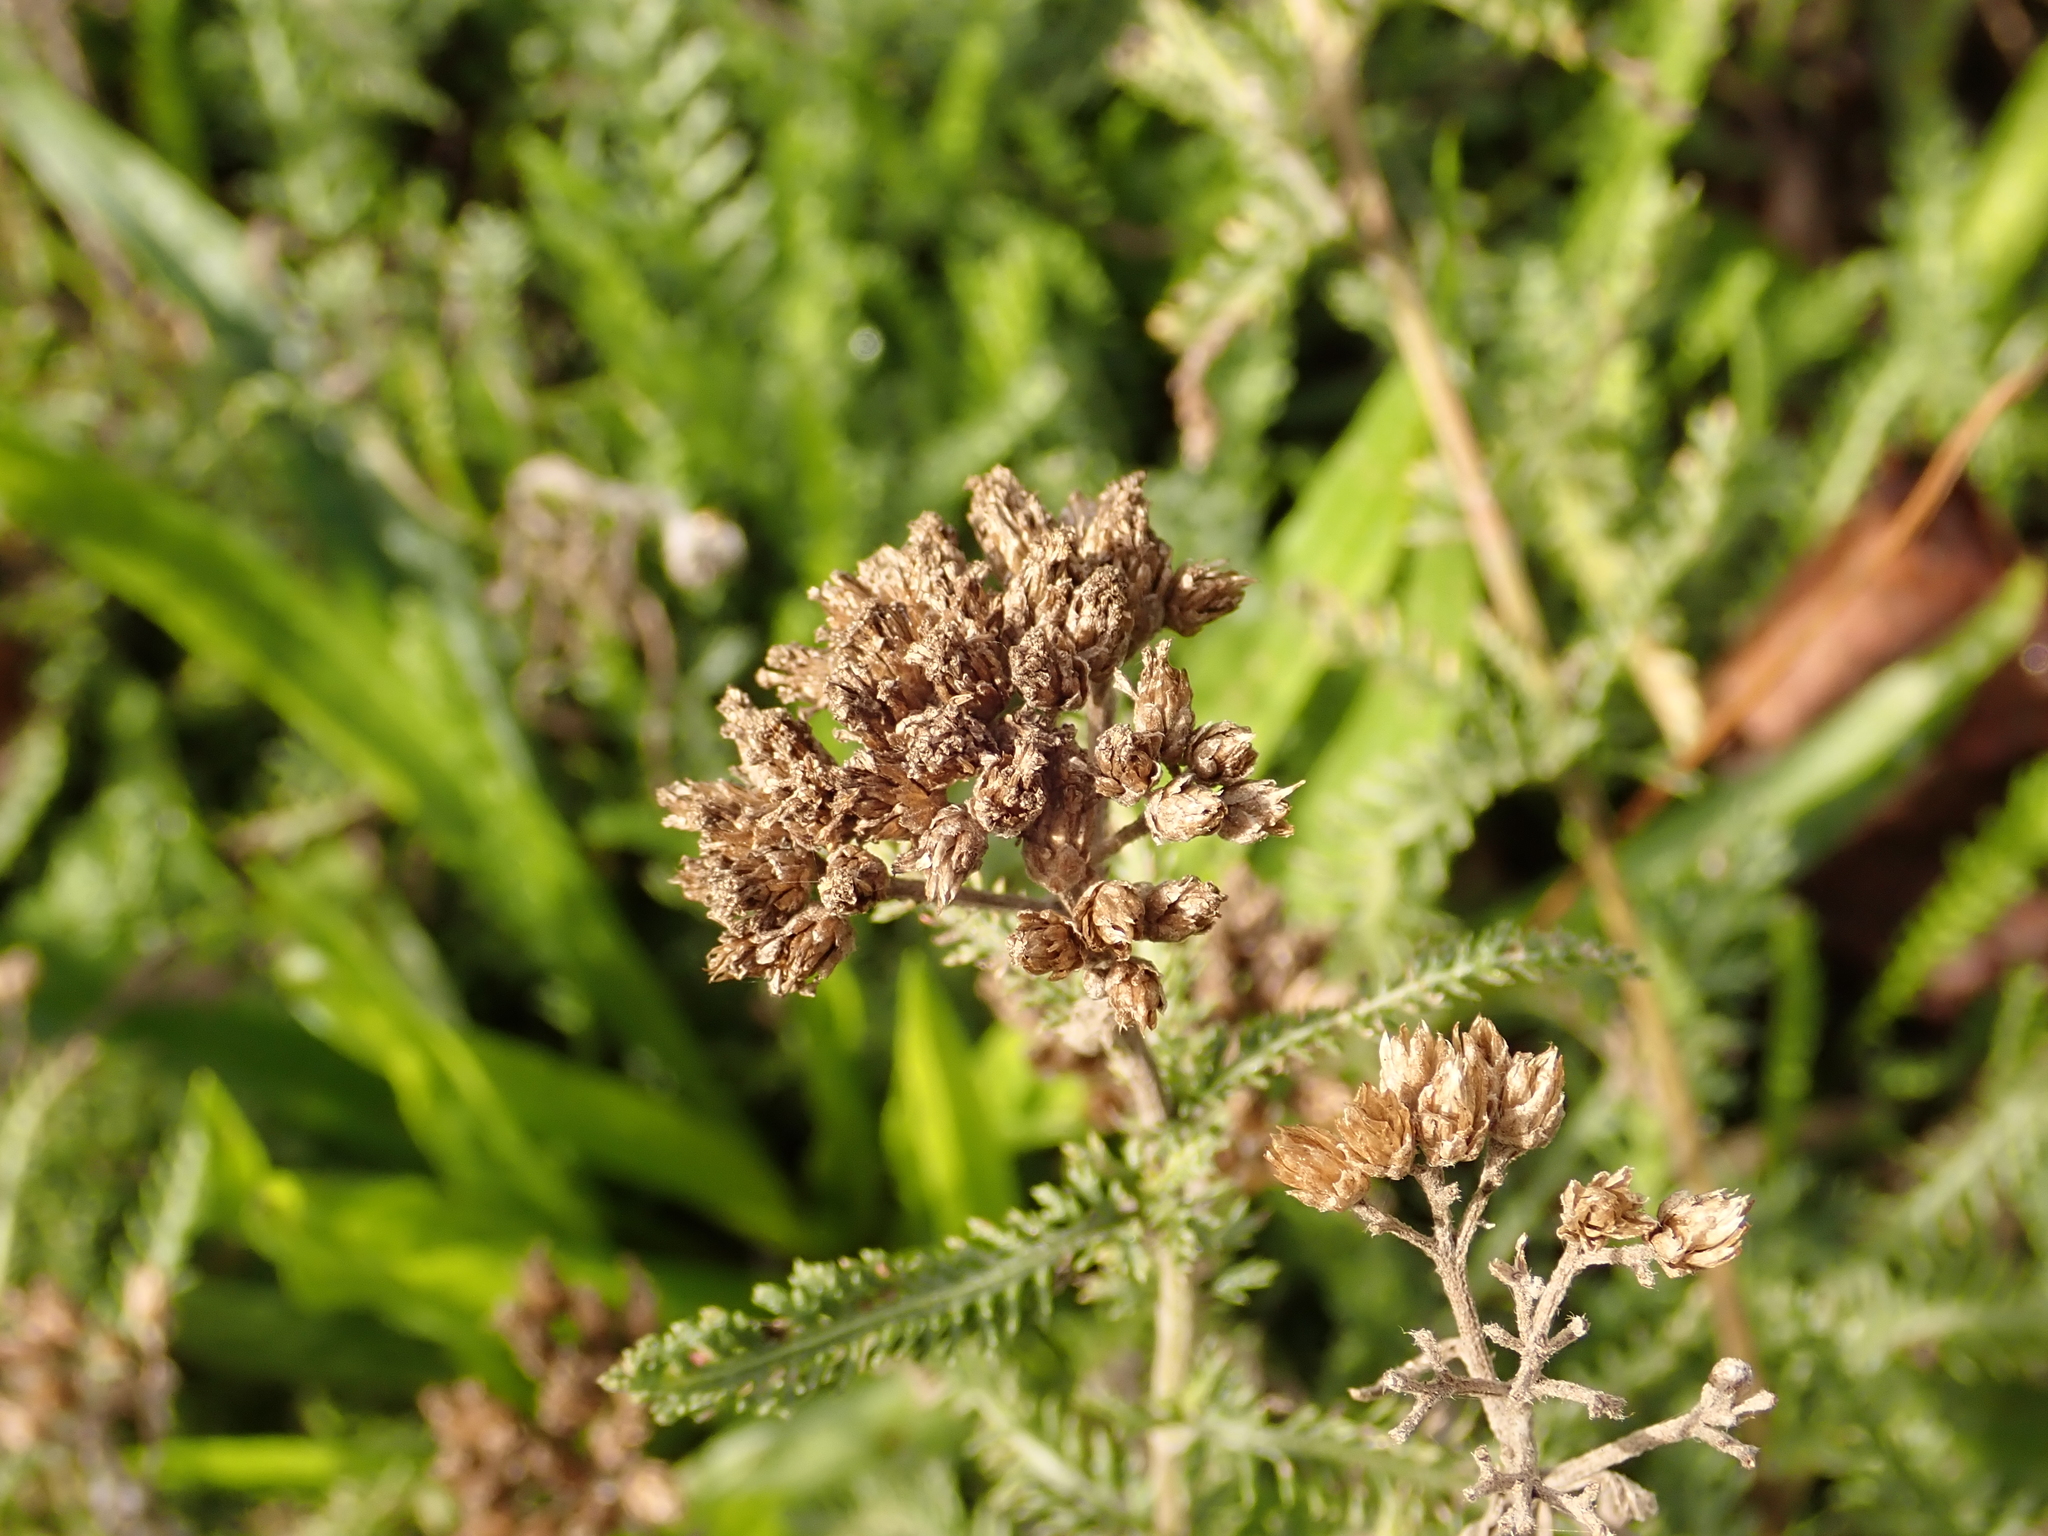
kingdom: Plantae
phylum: Tracheophyta
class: Magnoliopsida
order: Asterales
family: Asteraceae
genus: Achillea
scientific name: Achillea millefolium
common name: Yarrow
